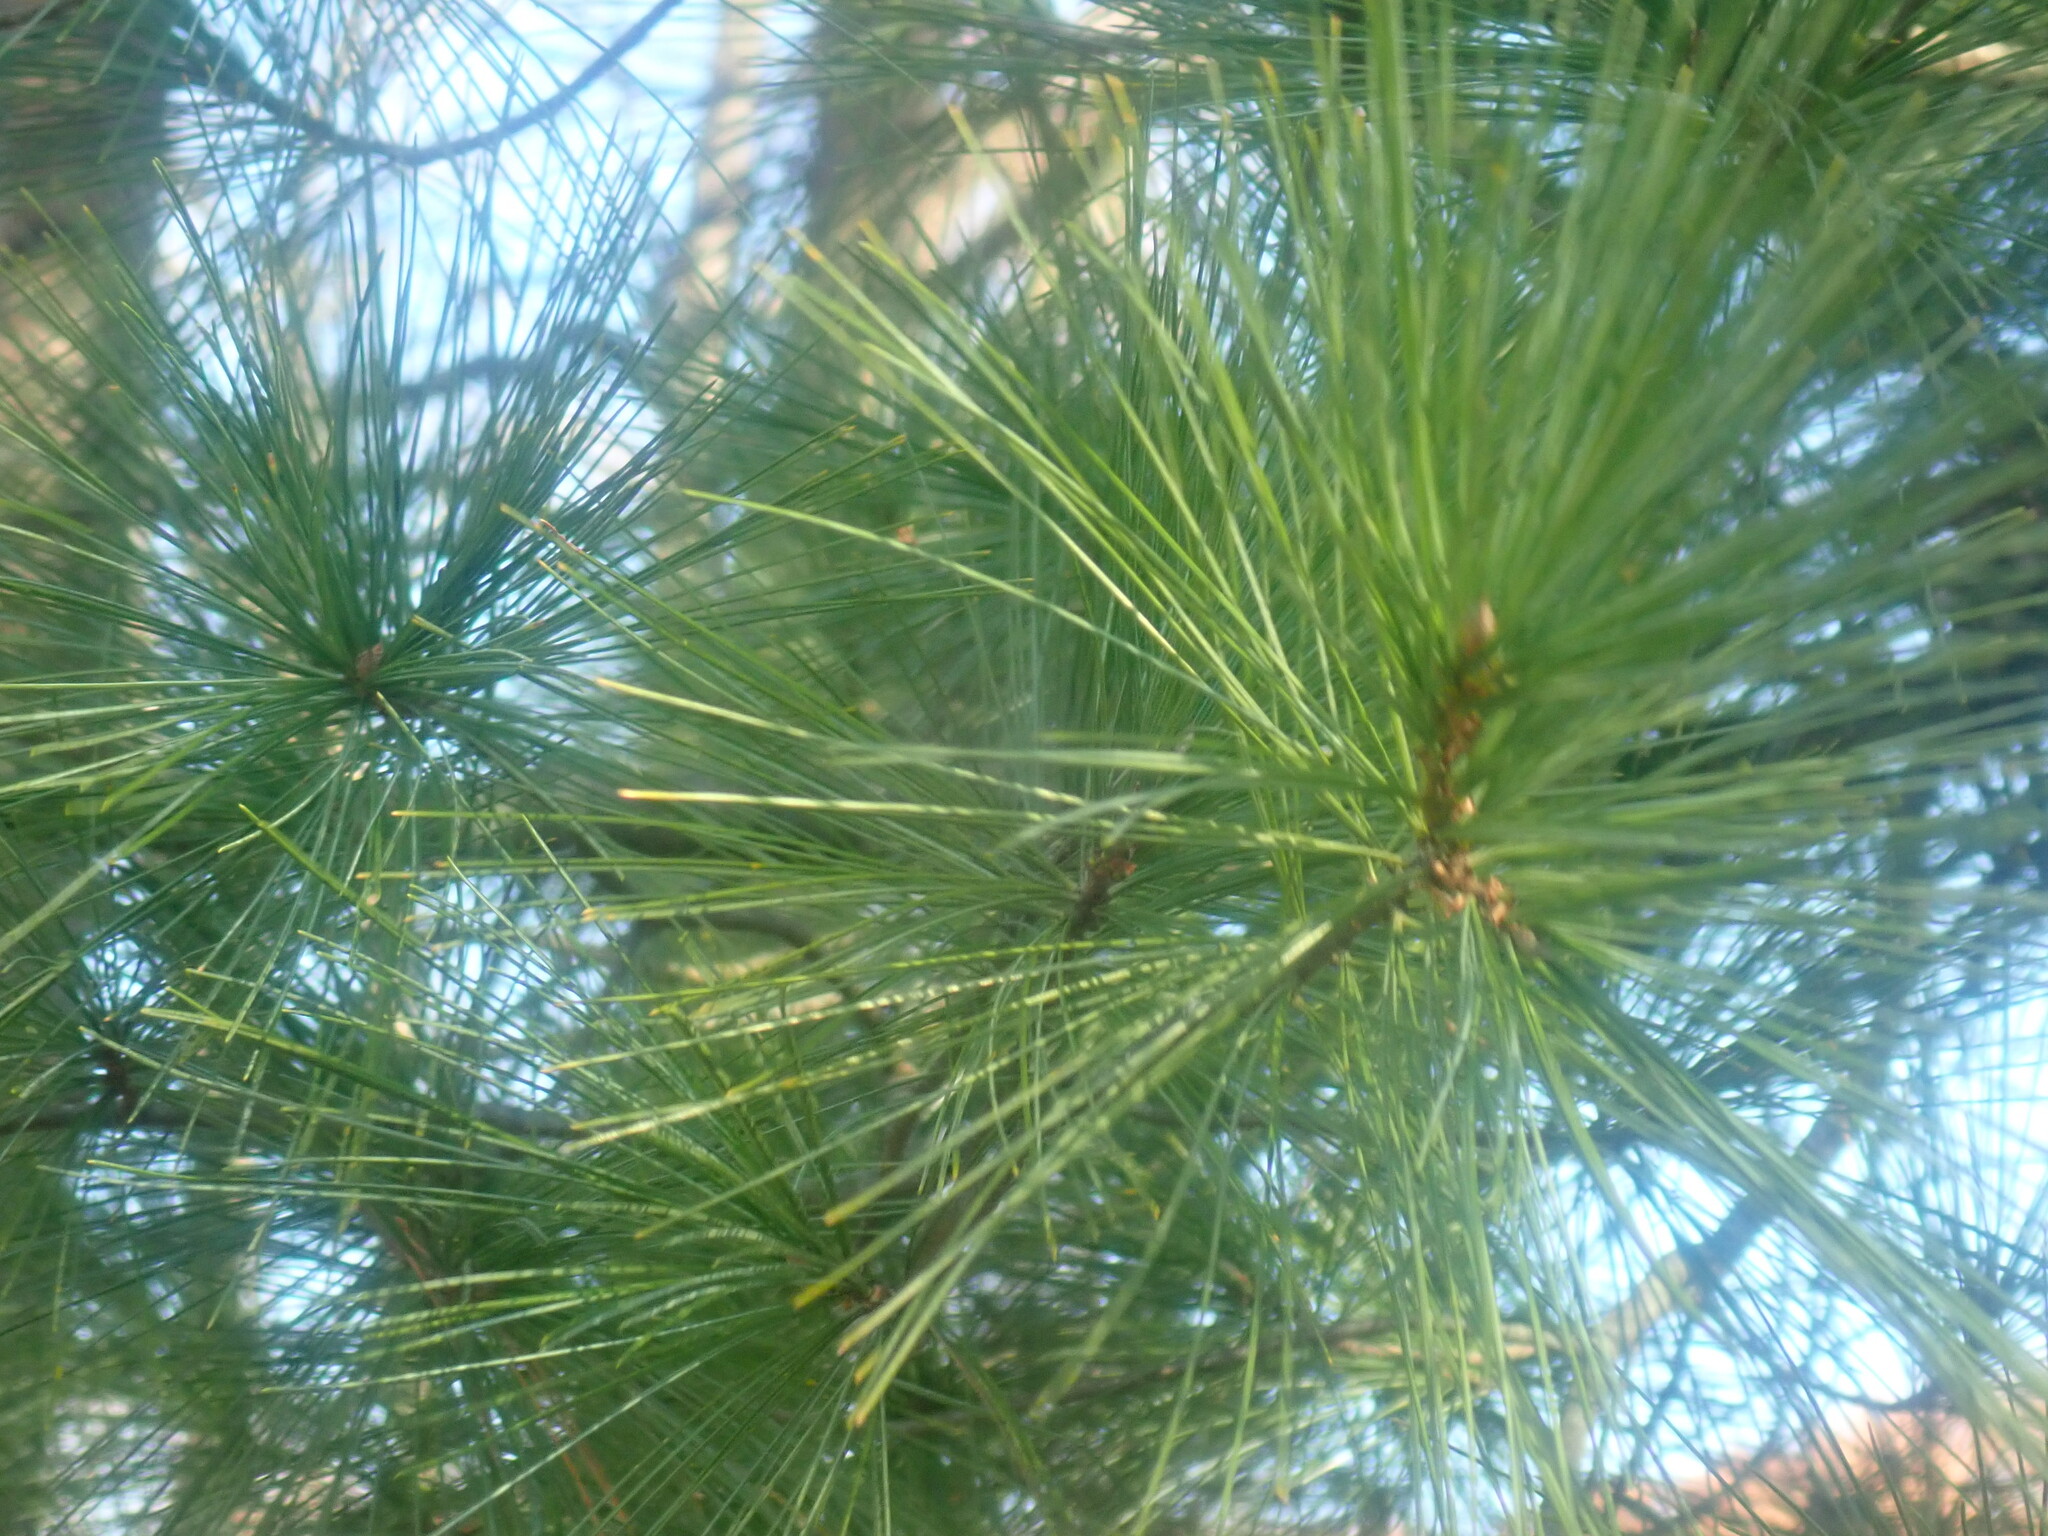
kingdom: Plantae
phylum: Tracheophyta
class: Pinopsida
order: Pinales
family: Pinaceae
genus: Pinus
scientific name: Pinus strobus
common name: Weymouth pine
